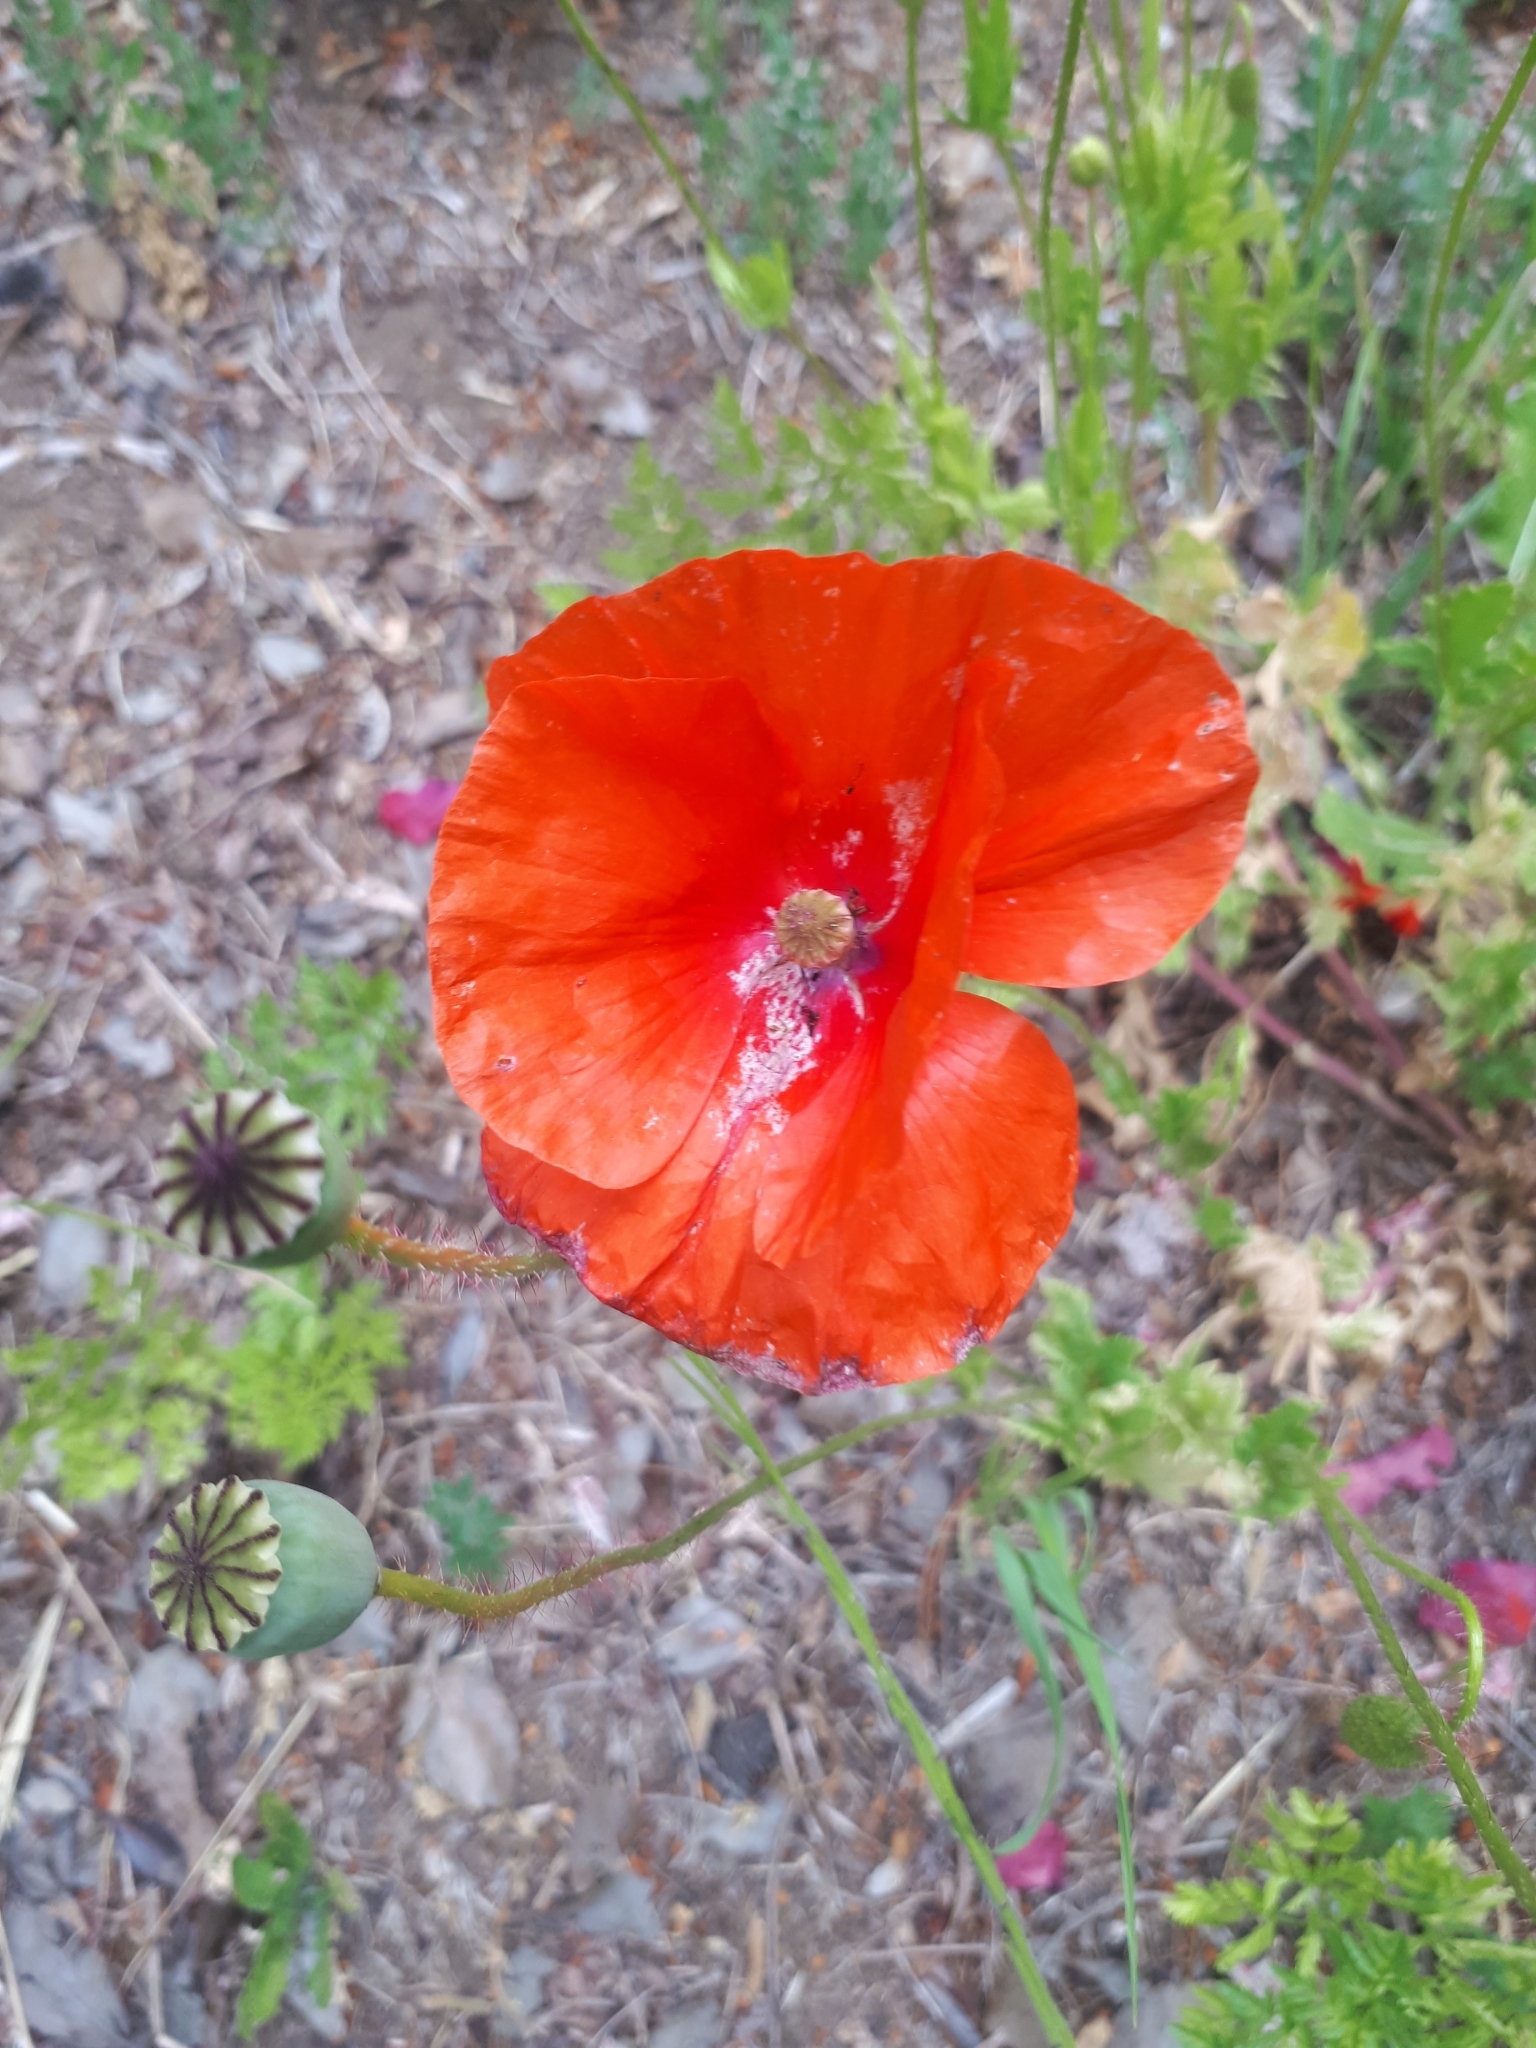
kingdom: Plantae
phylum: Tracheophyta
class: Magnoliopsida
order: Ranunculales
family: Papaveraceae
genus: Papaver
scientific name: Papaver rhoeas
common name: Corn poppy
